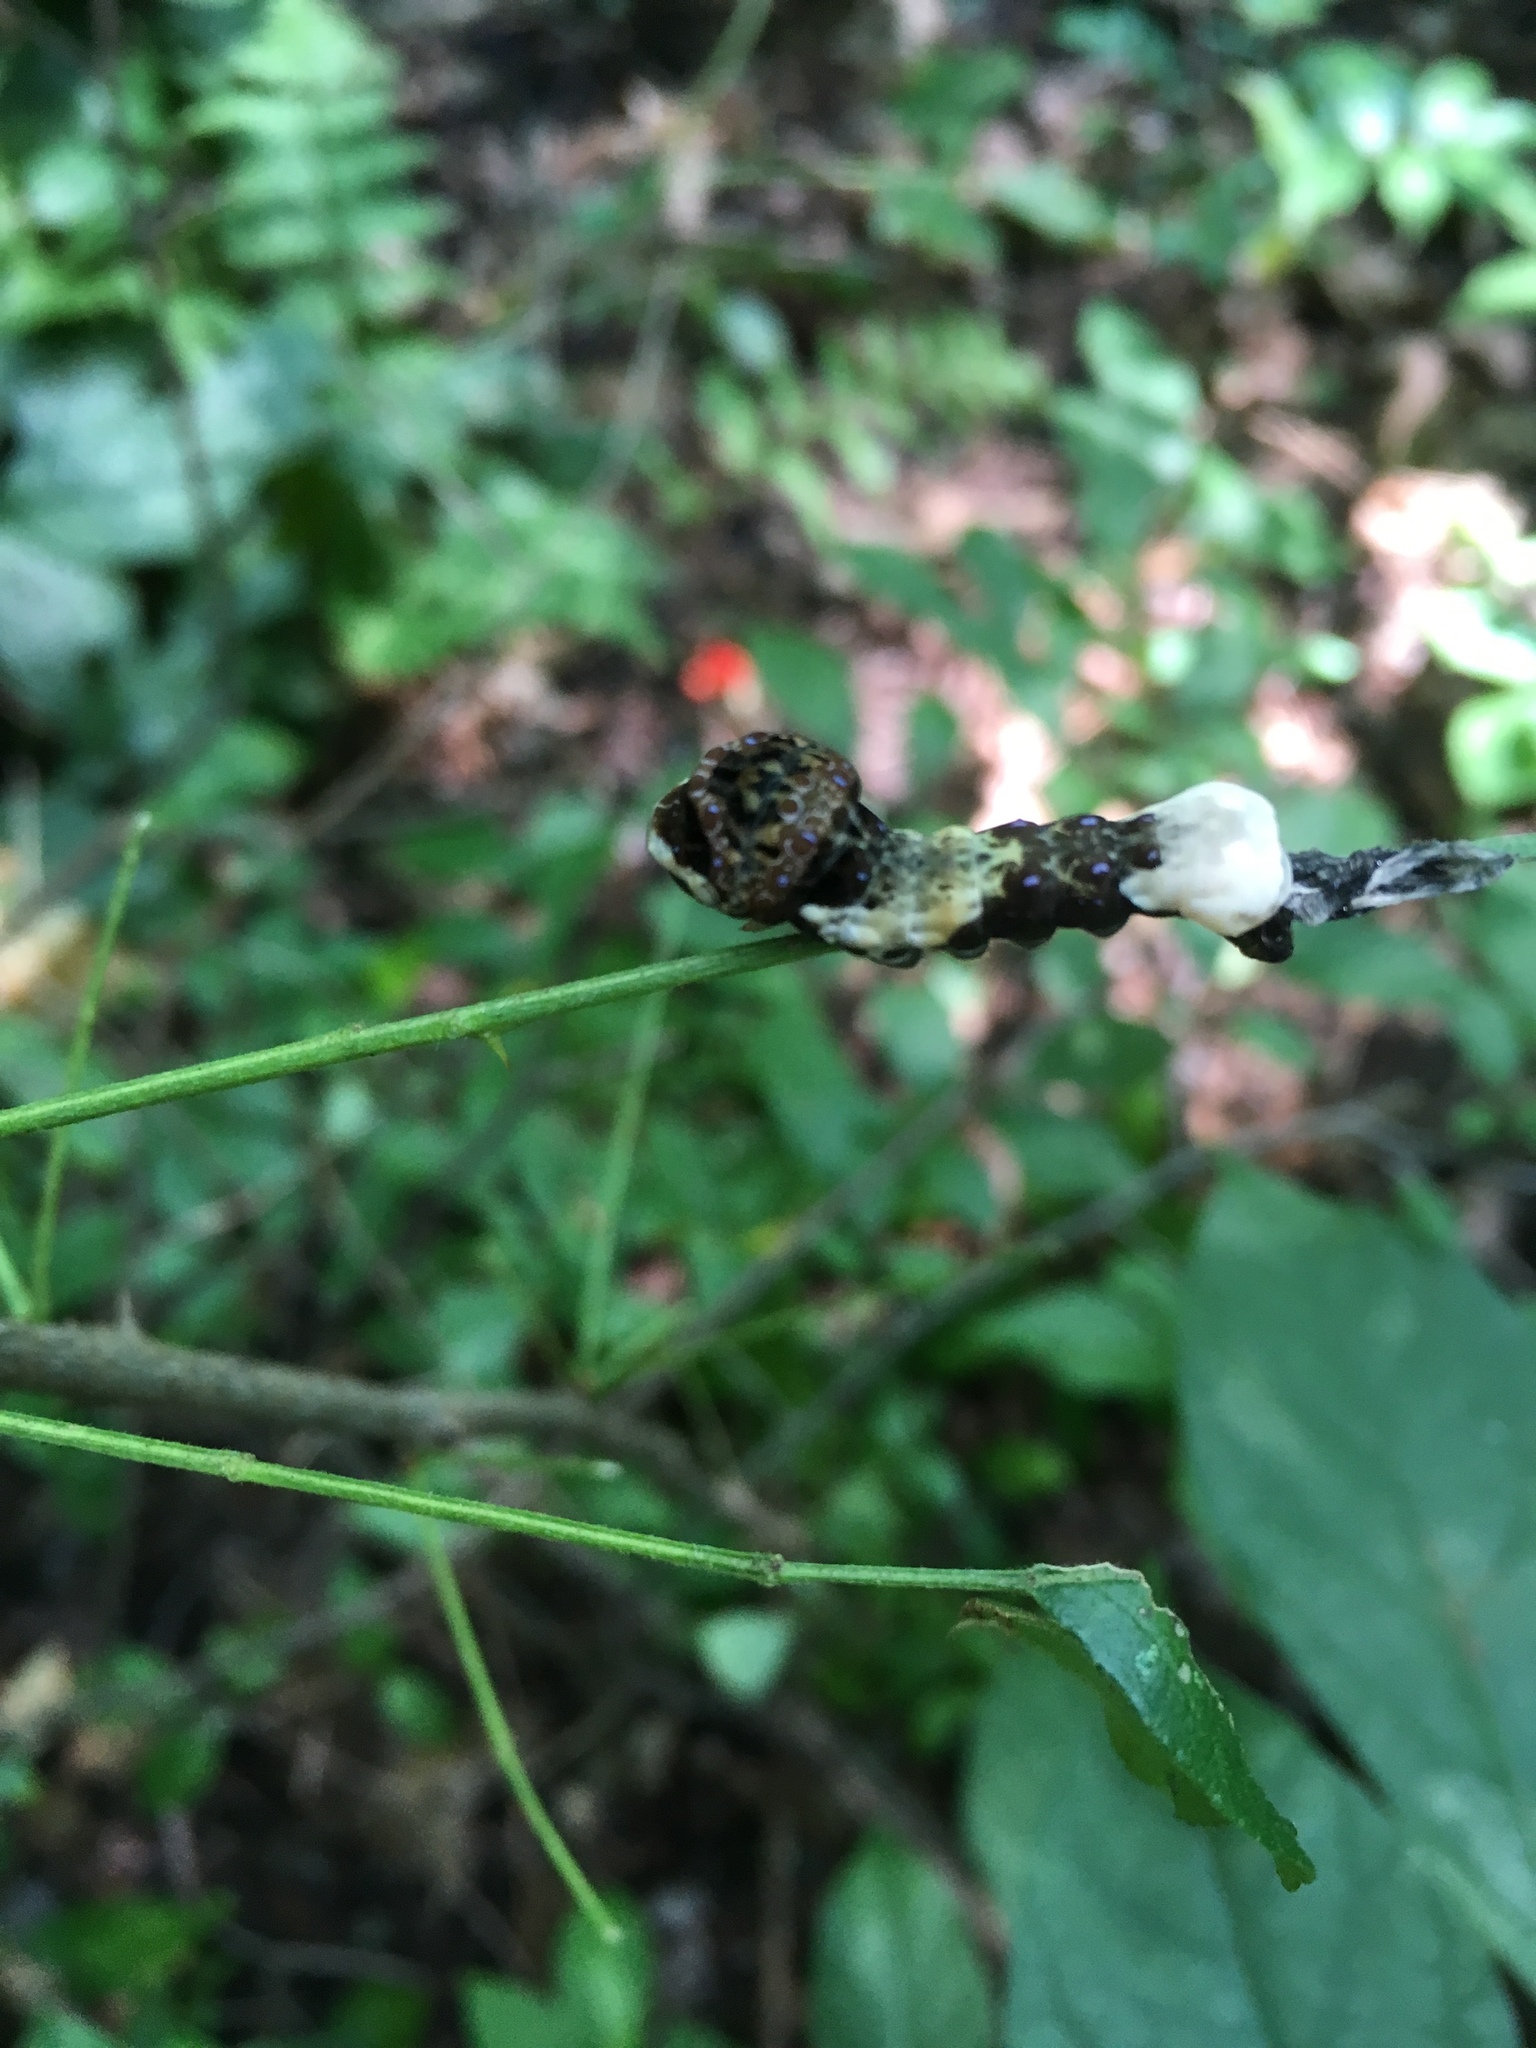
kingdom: Animalia
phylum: Arthropoda
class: Insecta
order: Lepidoptera
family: Papilionidae
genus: Papilio
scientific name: Papilio cresphontes
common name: Giant swallowtail
